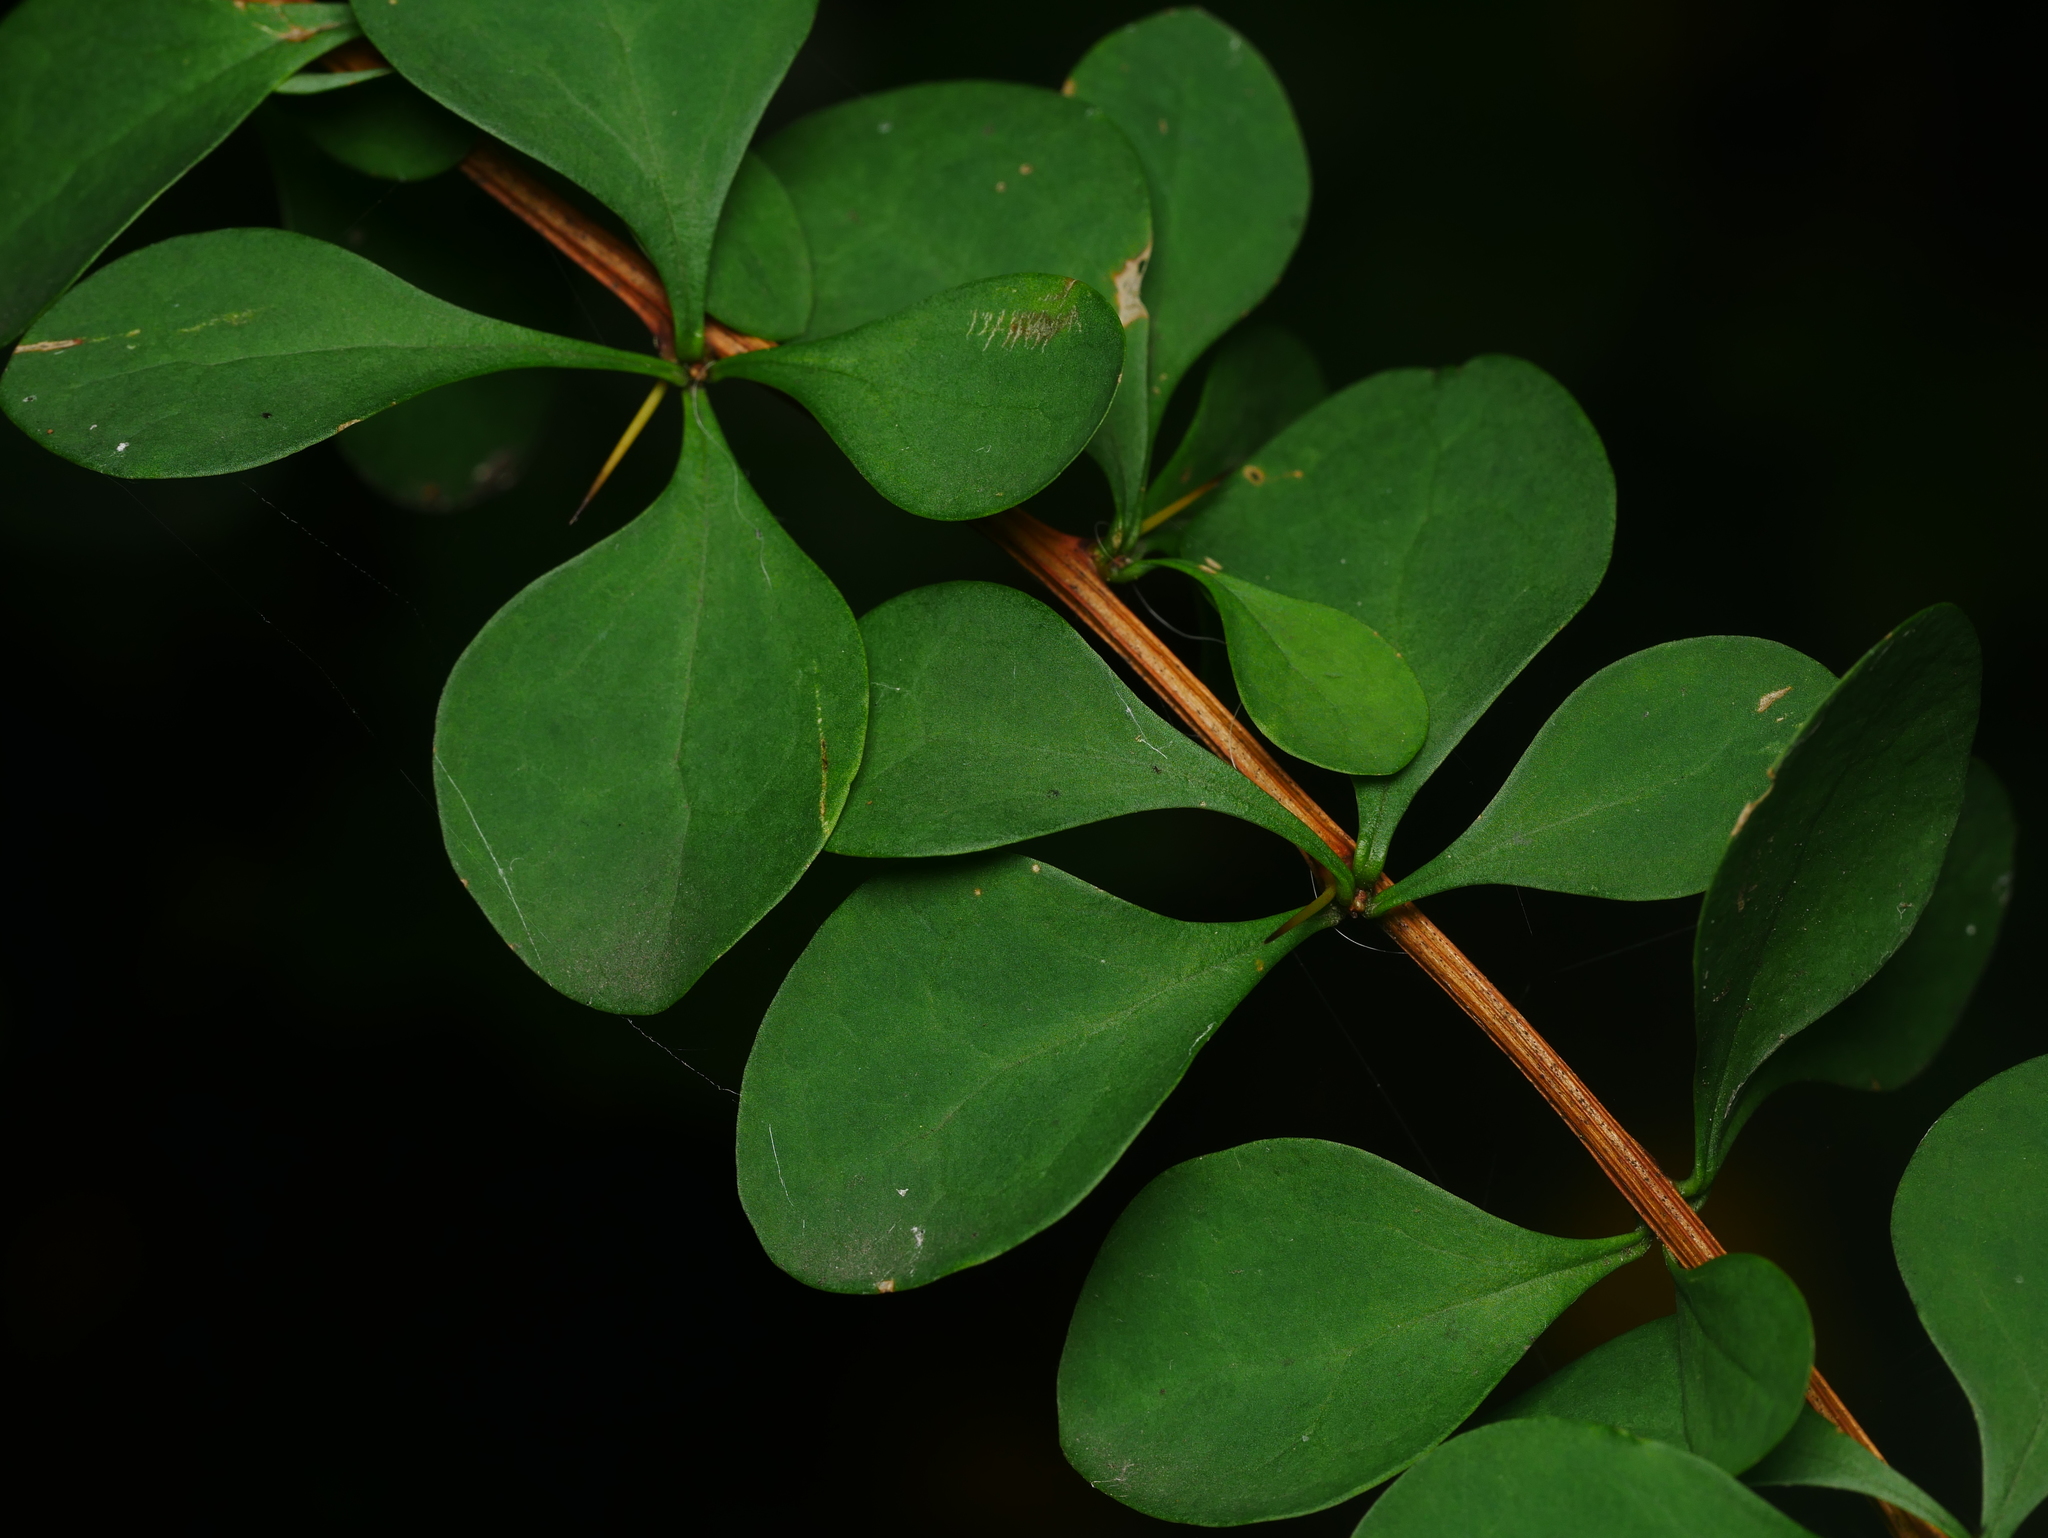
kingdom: Plantae
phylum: Tracheophyta
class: Magnoliopsida
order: Ranunculales
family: Berberidaceae
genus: Berberis
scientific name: Berberis thunbergii
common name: Japanese barberry
